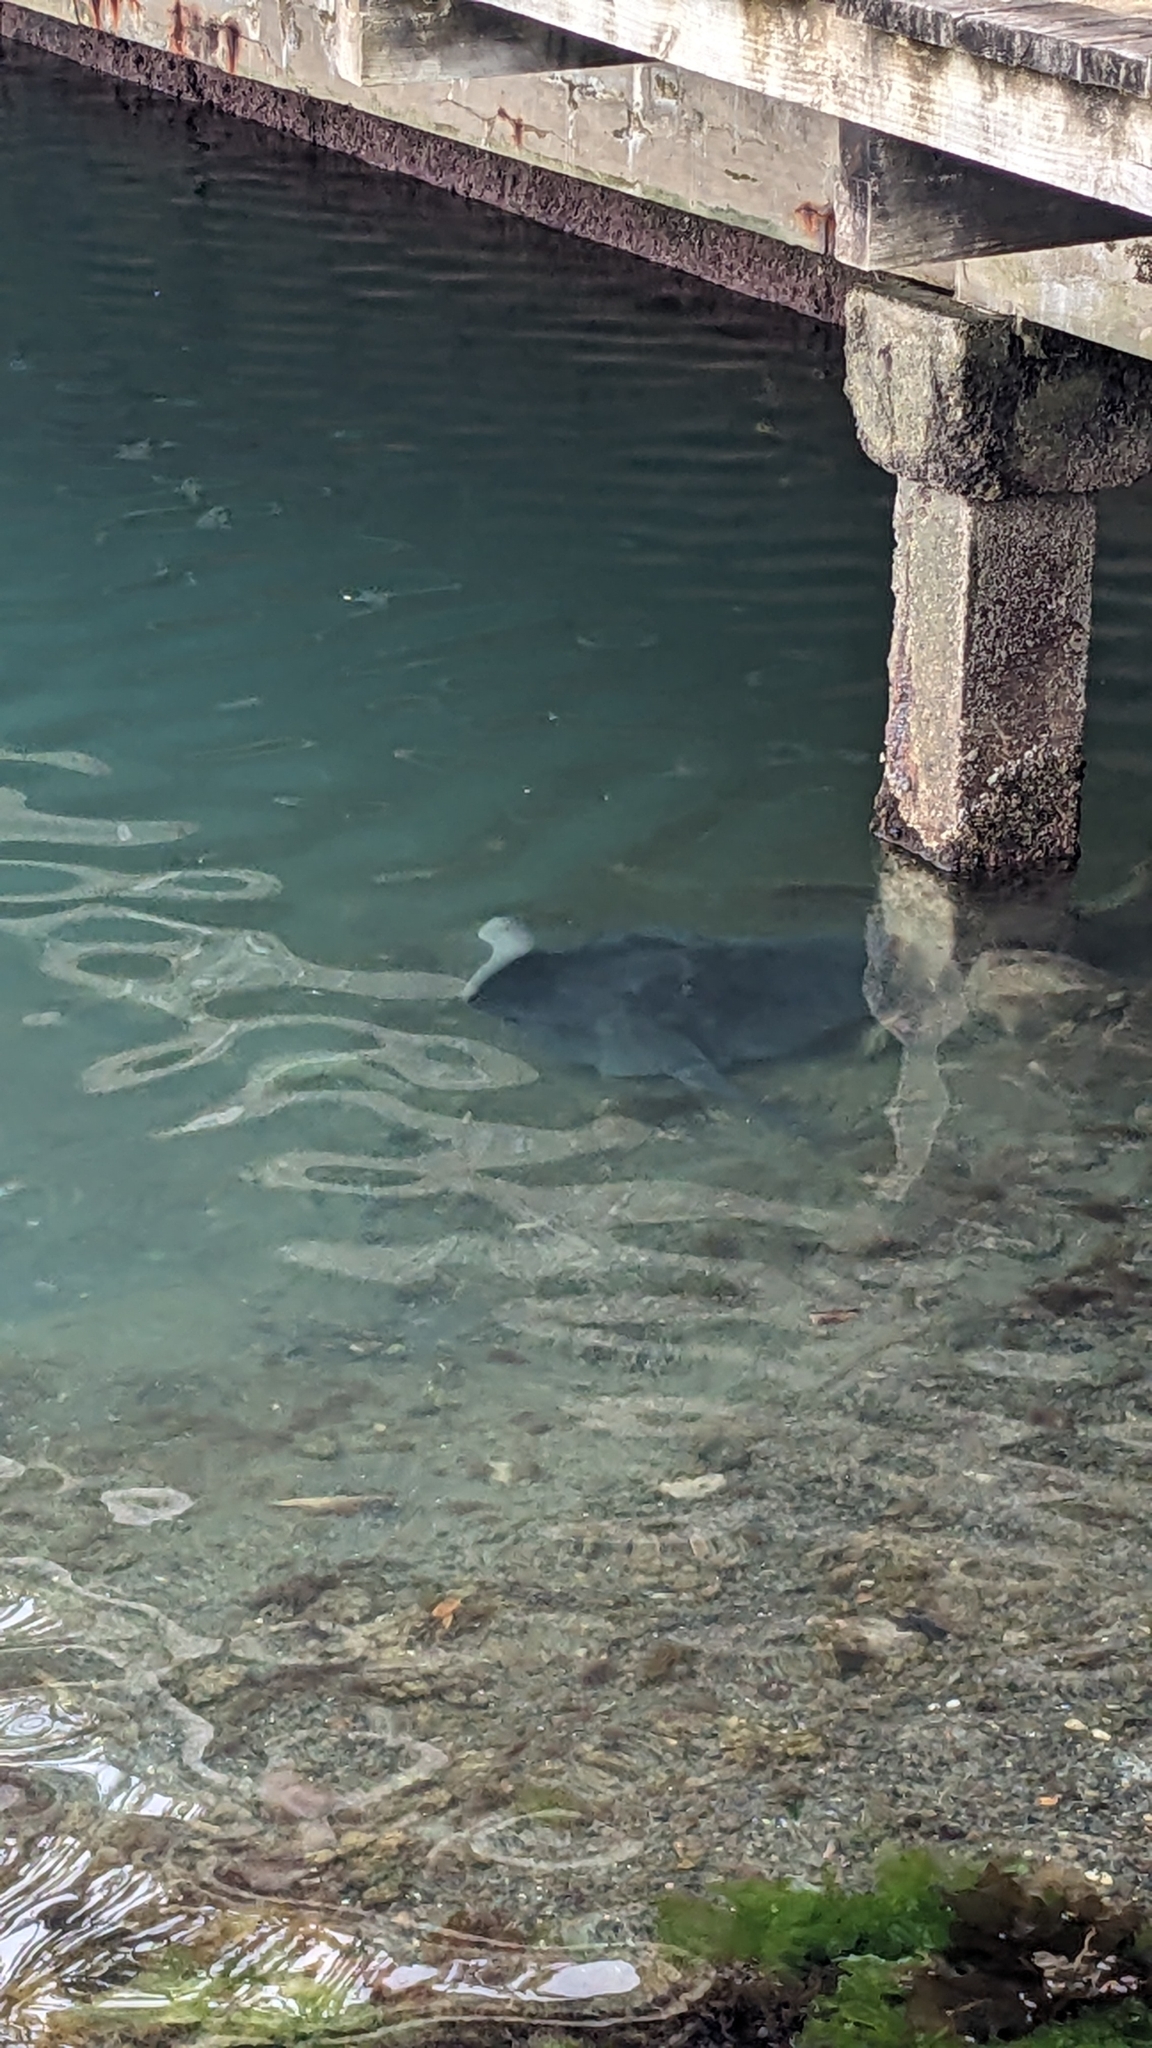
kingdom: Animalia
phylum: Chordata
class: Elasmobranchii
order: Myliobatiformes
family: Dasyatidae
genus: Bathytoshia
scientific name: Bathytoshia brevicaudata
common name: Short-tail stingray
